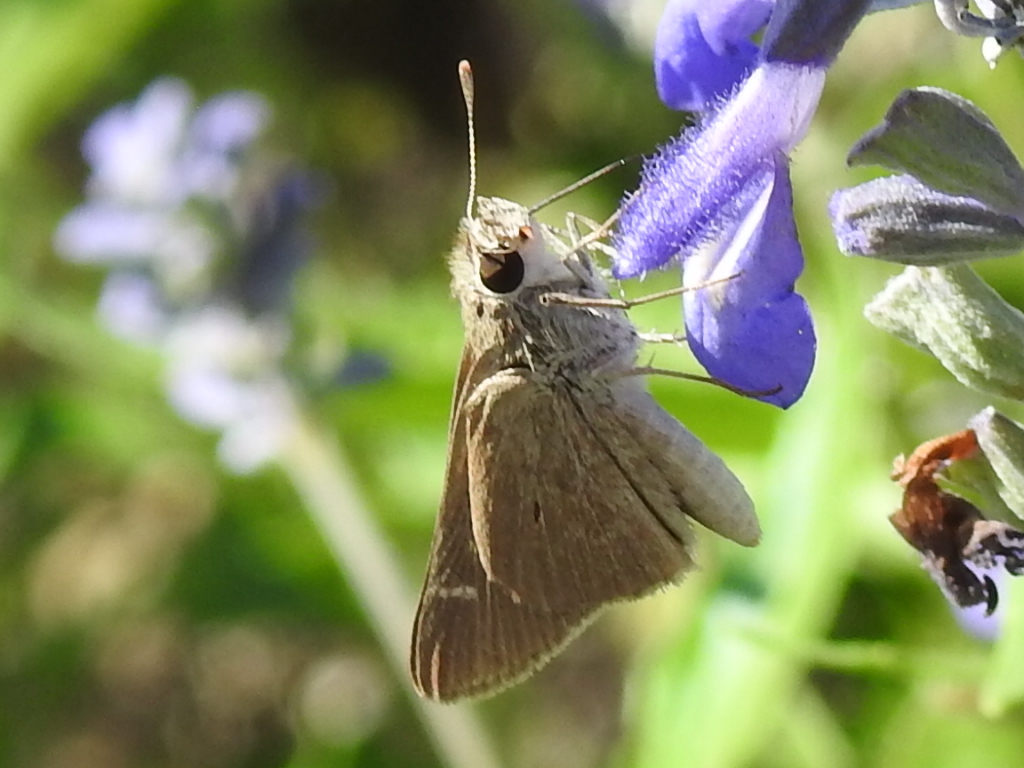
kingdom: Animalia
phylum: Arthropoda
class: Insecta
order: Lepidoptera
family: Hesperiidae
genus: Lerodea
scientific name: Lerodea eufala
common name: Eufala skipper
